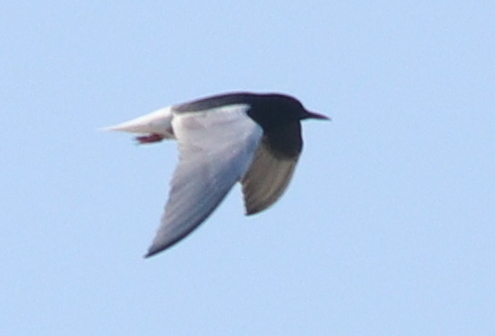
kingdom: Animalia
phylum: Chordata
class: Aves
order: Charadriiformes
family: Laridae
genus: Chlidonias
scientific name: Chlidonias leucopterus
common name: White-winged tern
